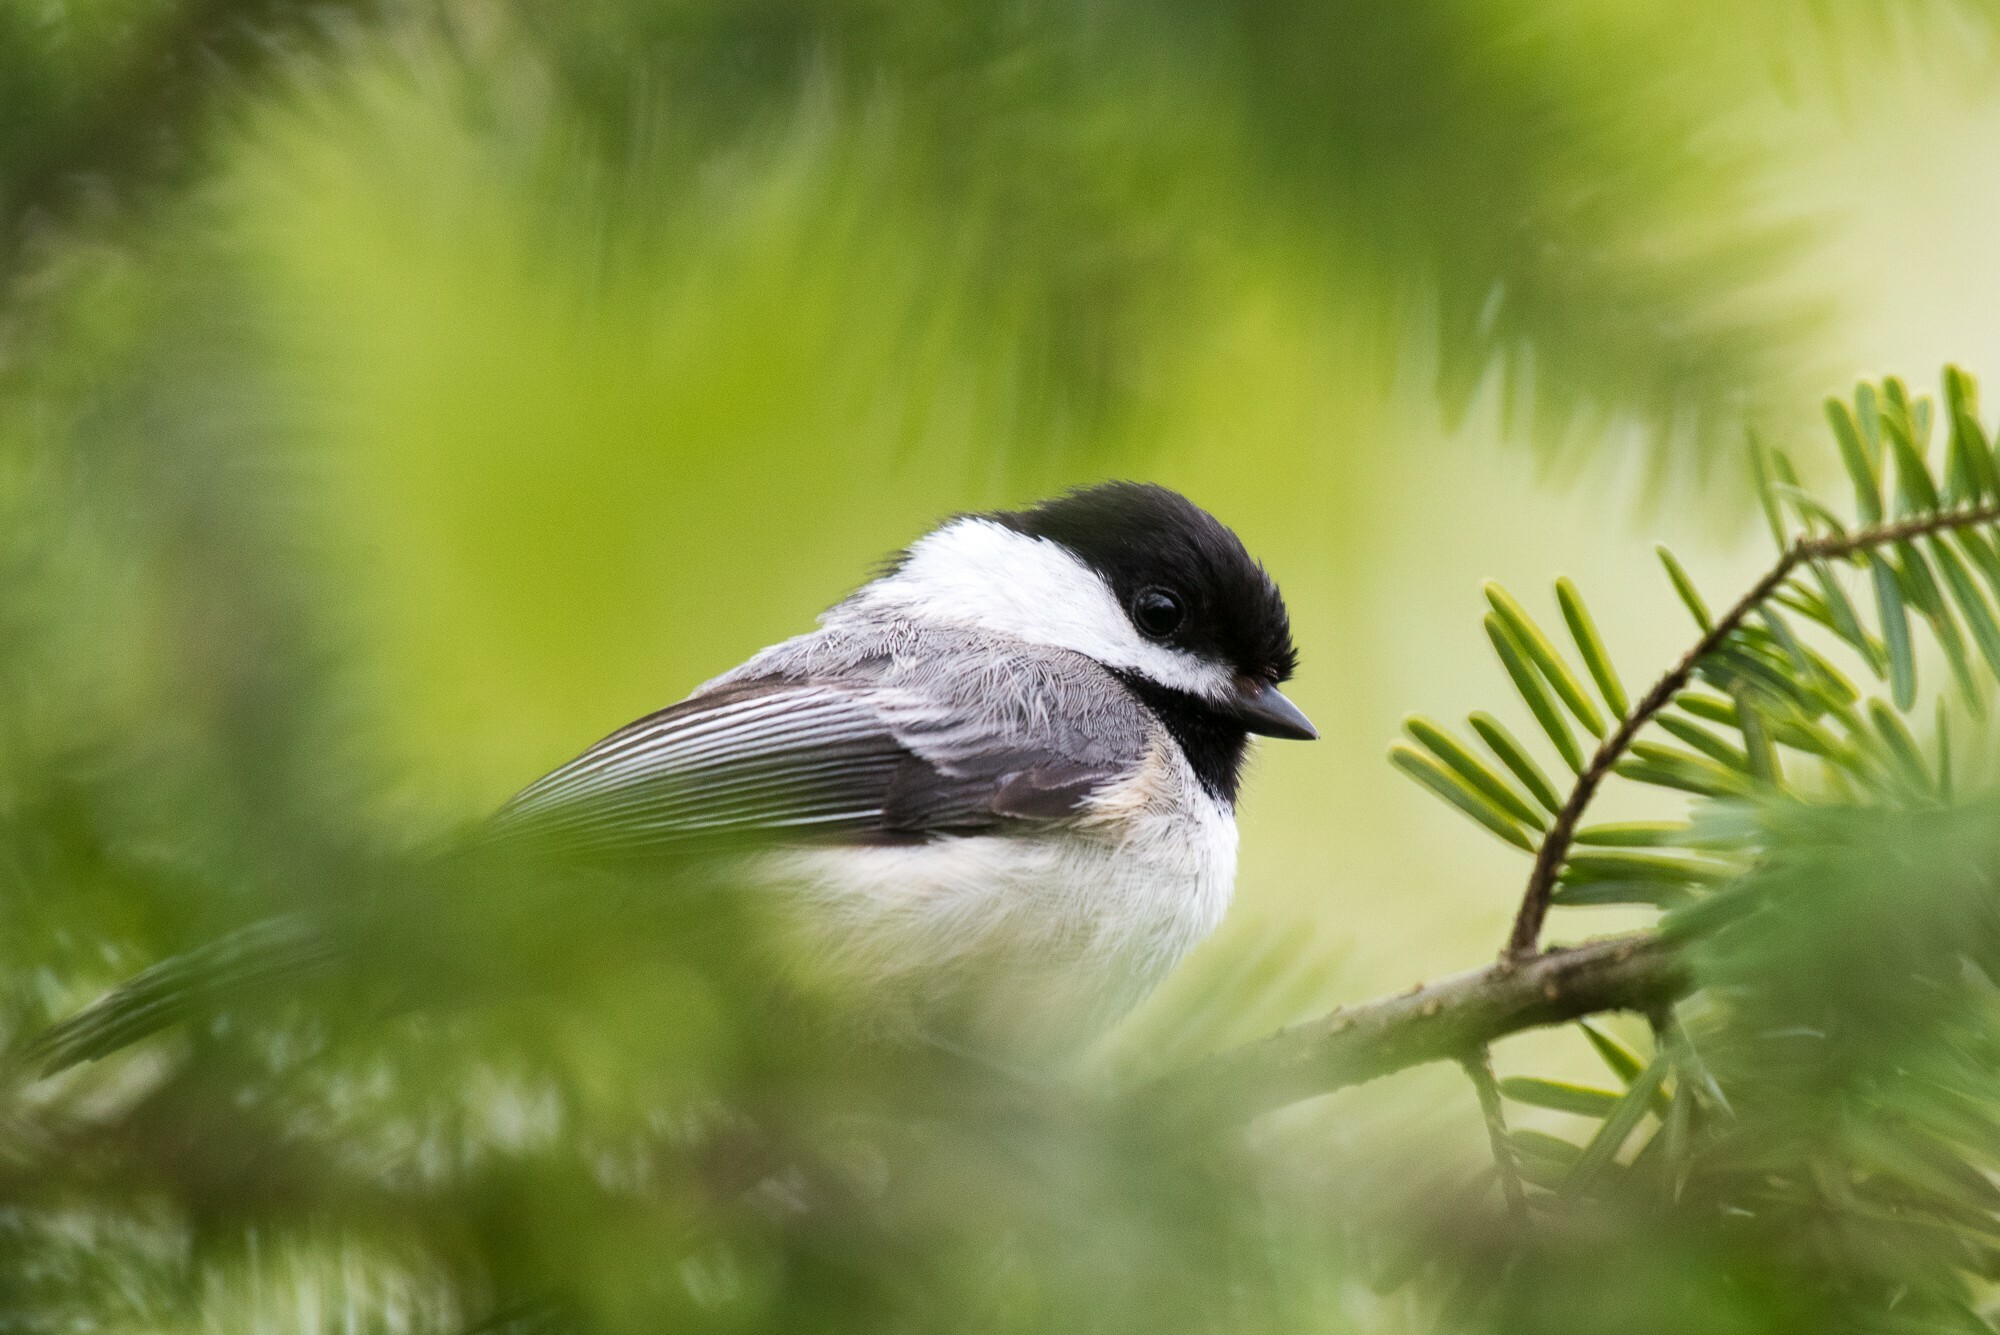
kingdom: Animalia
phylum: Chordata
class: Aves
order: Passeriformes
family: Paridae
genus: Poecile
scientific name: Poecile atricapillus
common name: Black-capped chickadee
